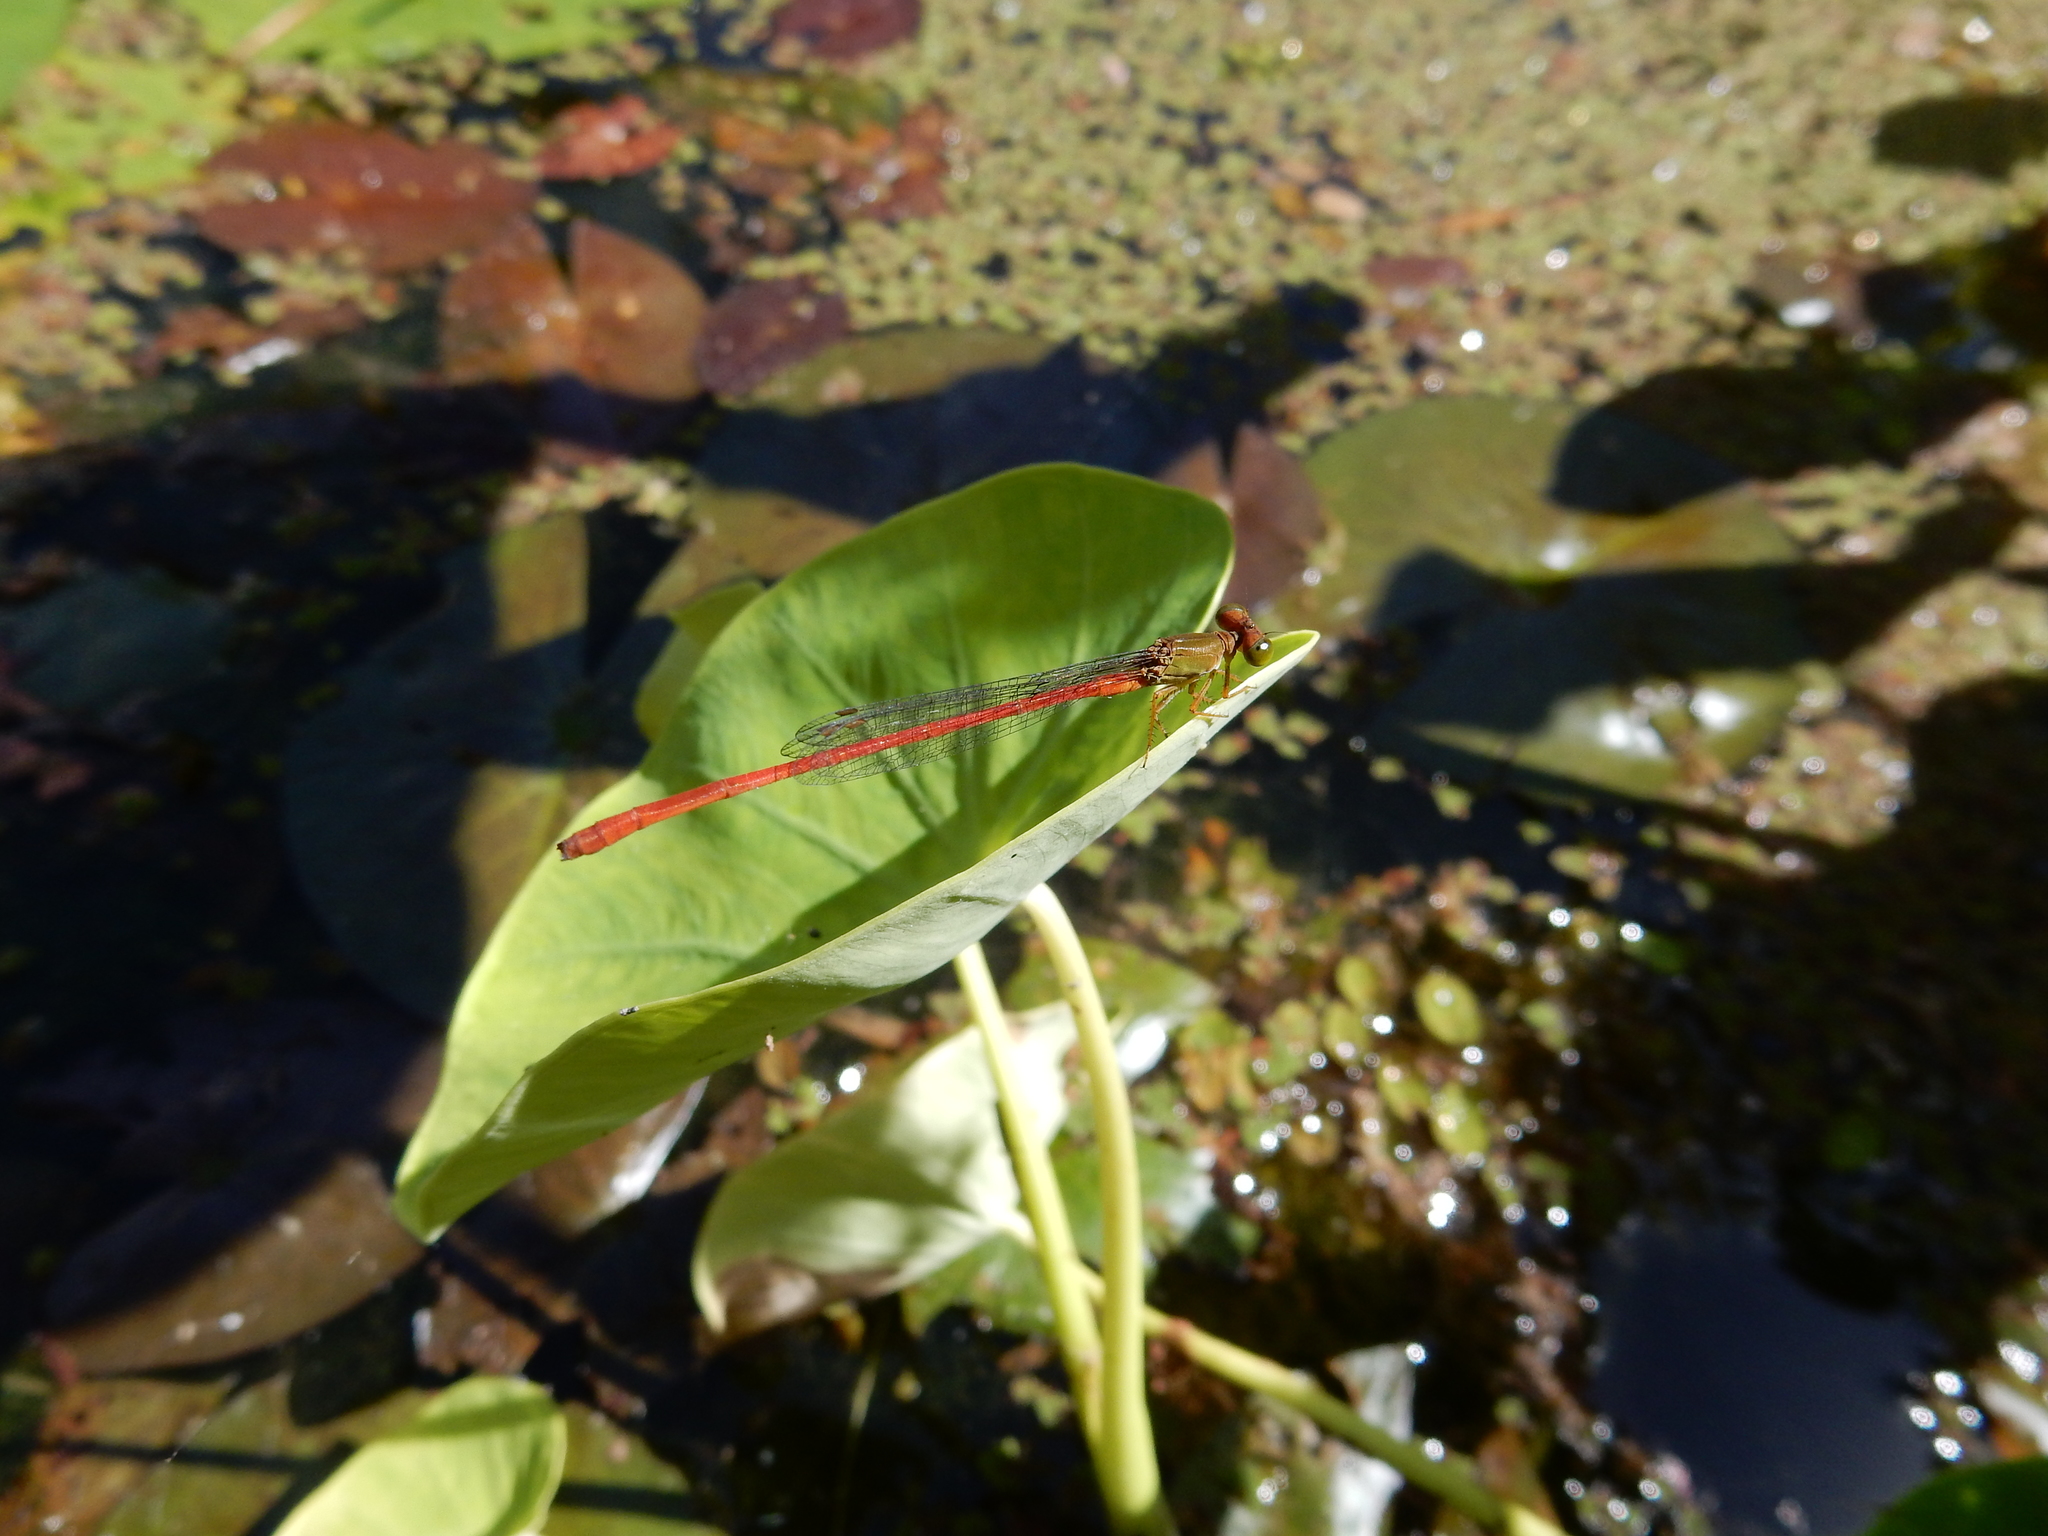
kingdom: Animalia
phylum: Arthropoda
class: Insecta
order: Odonata
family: Coenagrionidae
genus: Ceriagrion
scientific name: Ceriagrion aeruginosum
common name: Redtail
